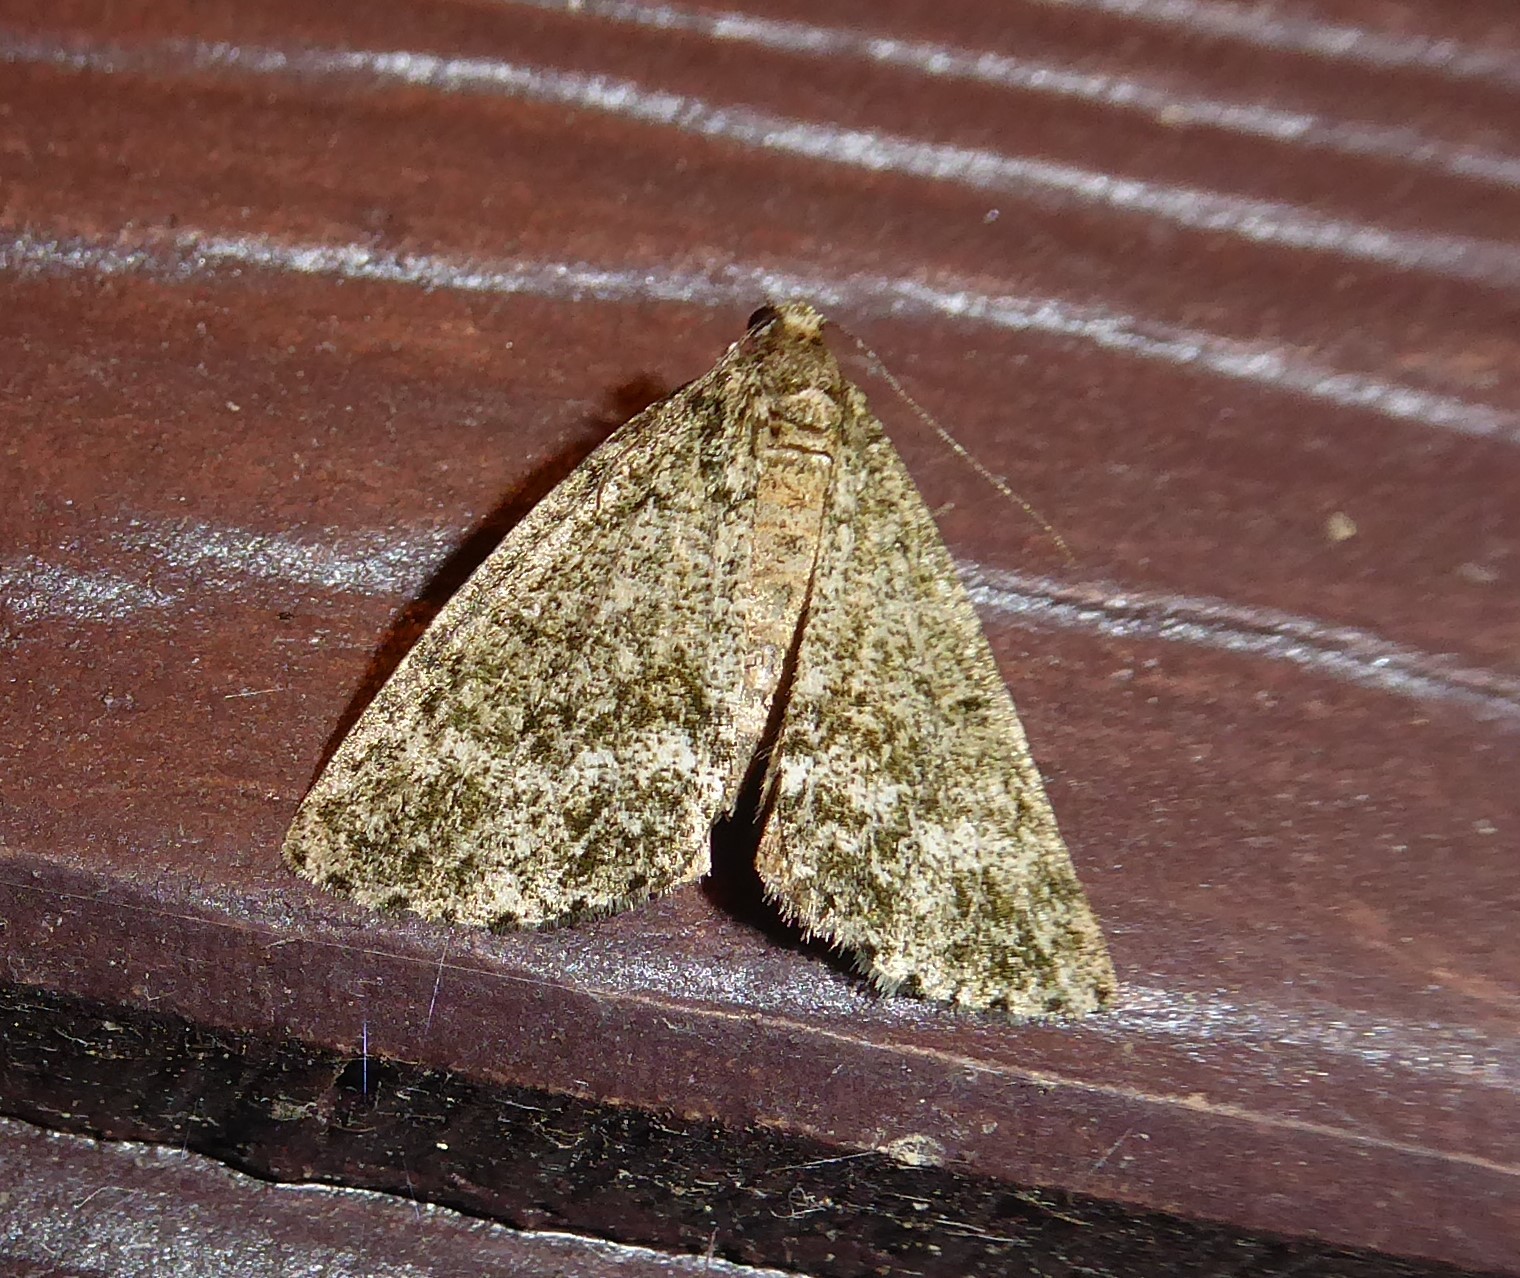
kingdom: Animalia
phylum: Arthropoda
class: Insecta
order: Lepidoptera
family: Geometridae
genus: Pseudocoremia
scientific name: Pseudocoremia indistincta
